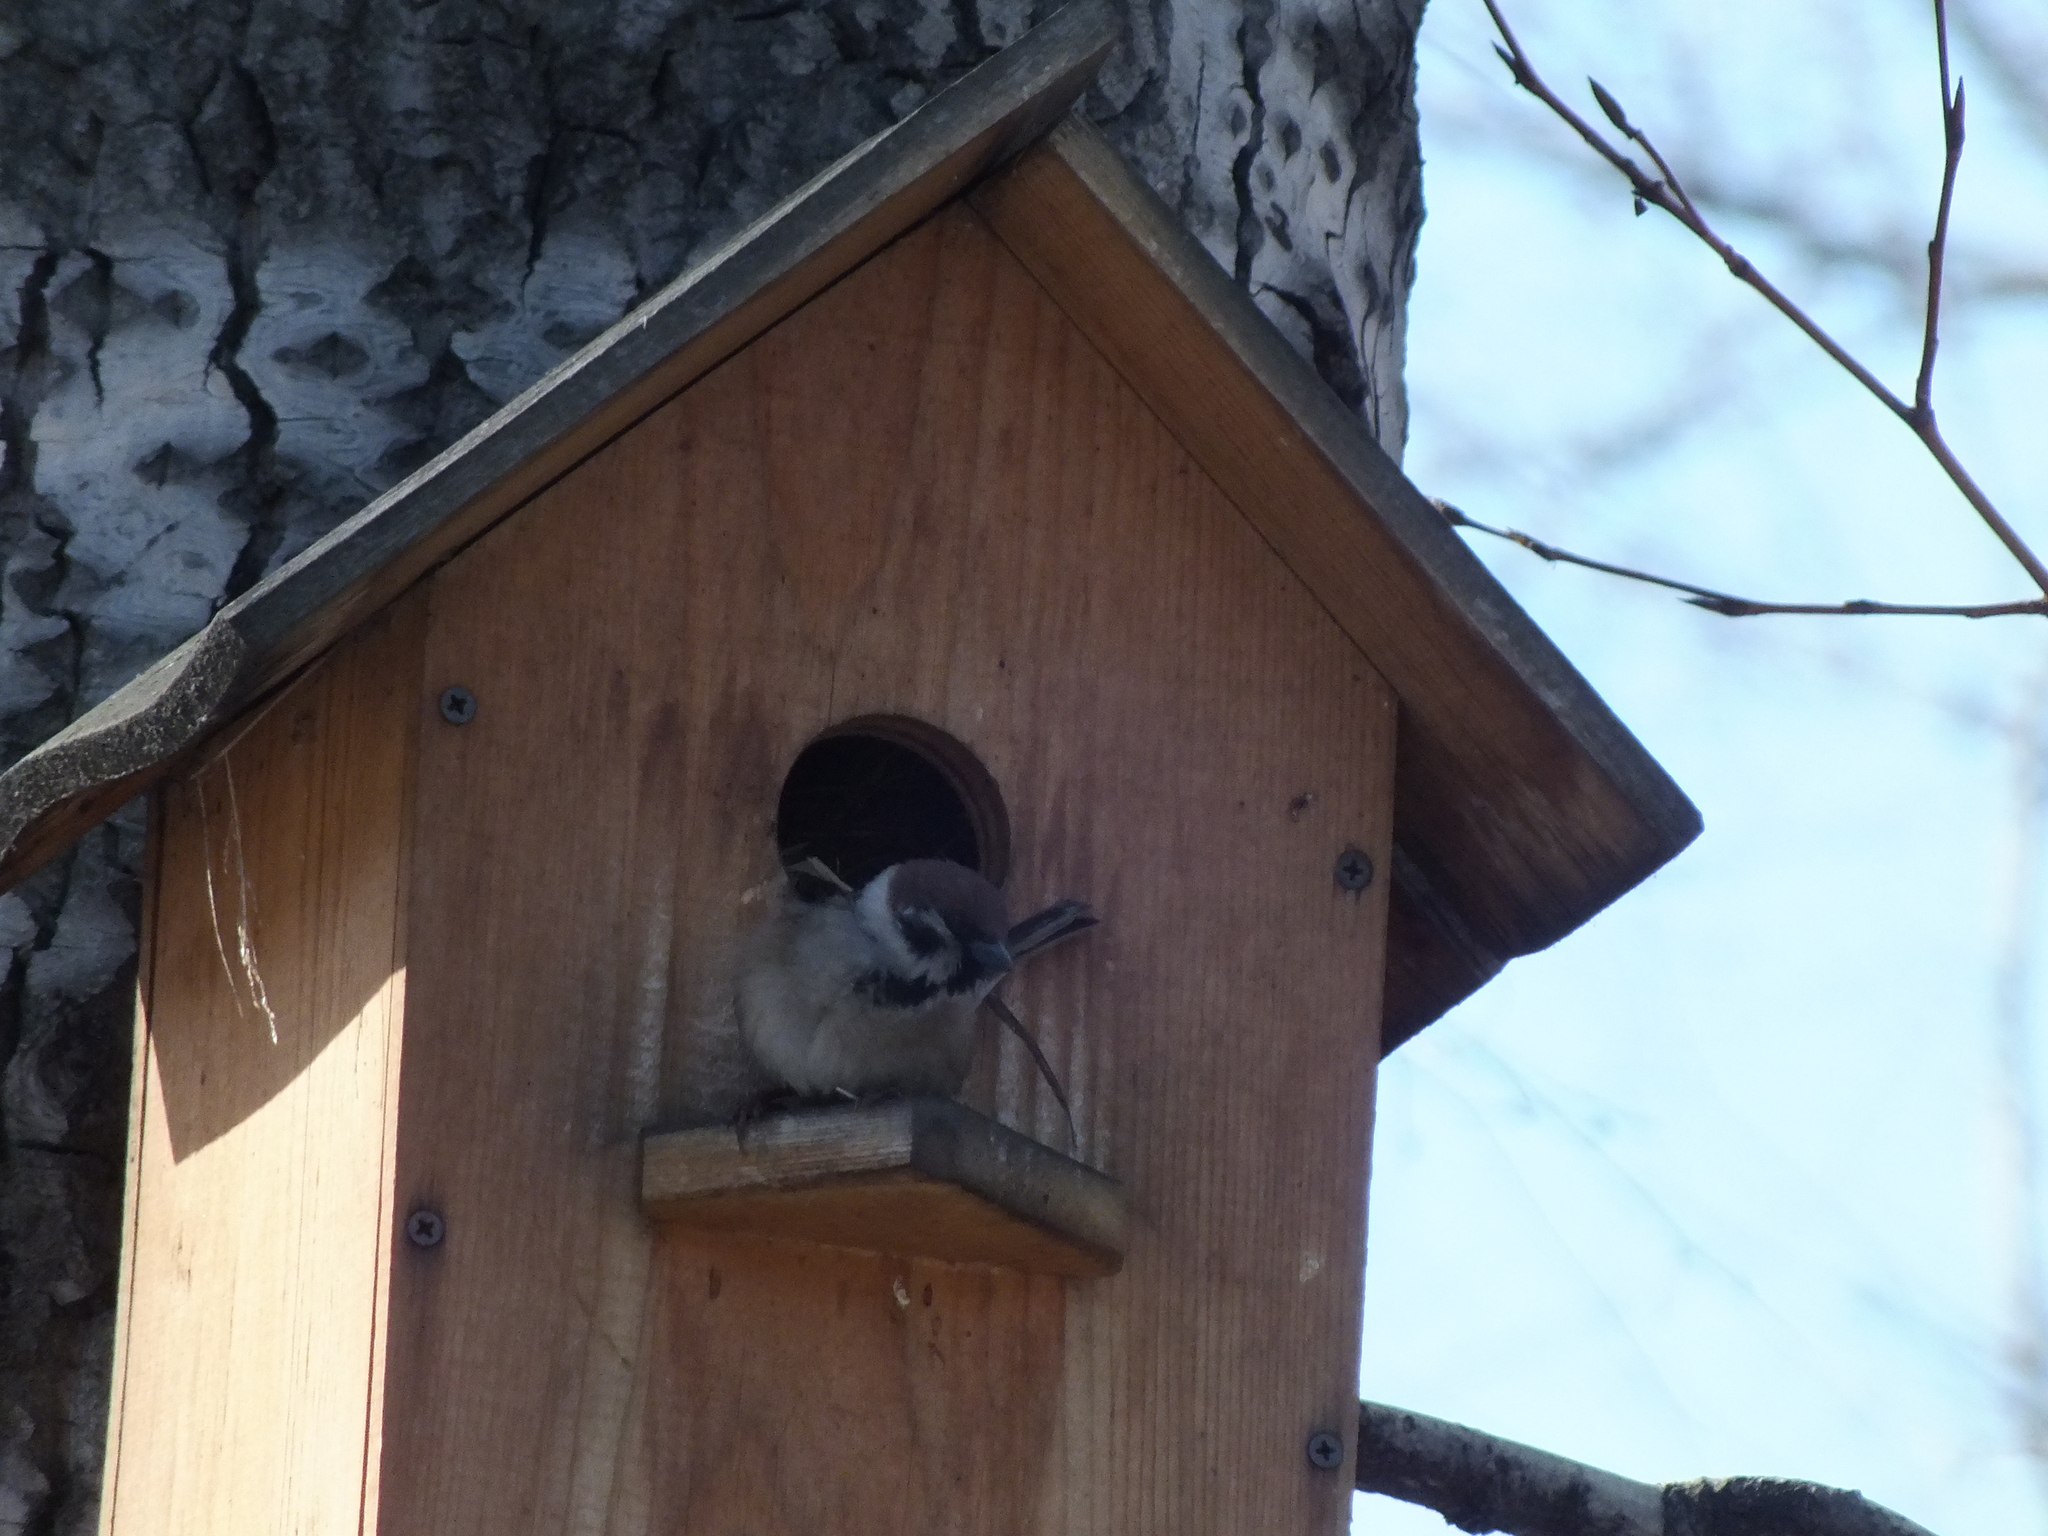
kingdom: Animalia
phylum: Chordata
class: Aves
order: Passeriformes
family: Passeridae
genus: Passer
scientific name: Passer montanus
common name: Eurasian tree sparrow
